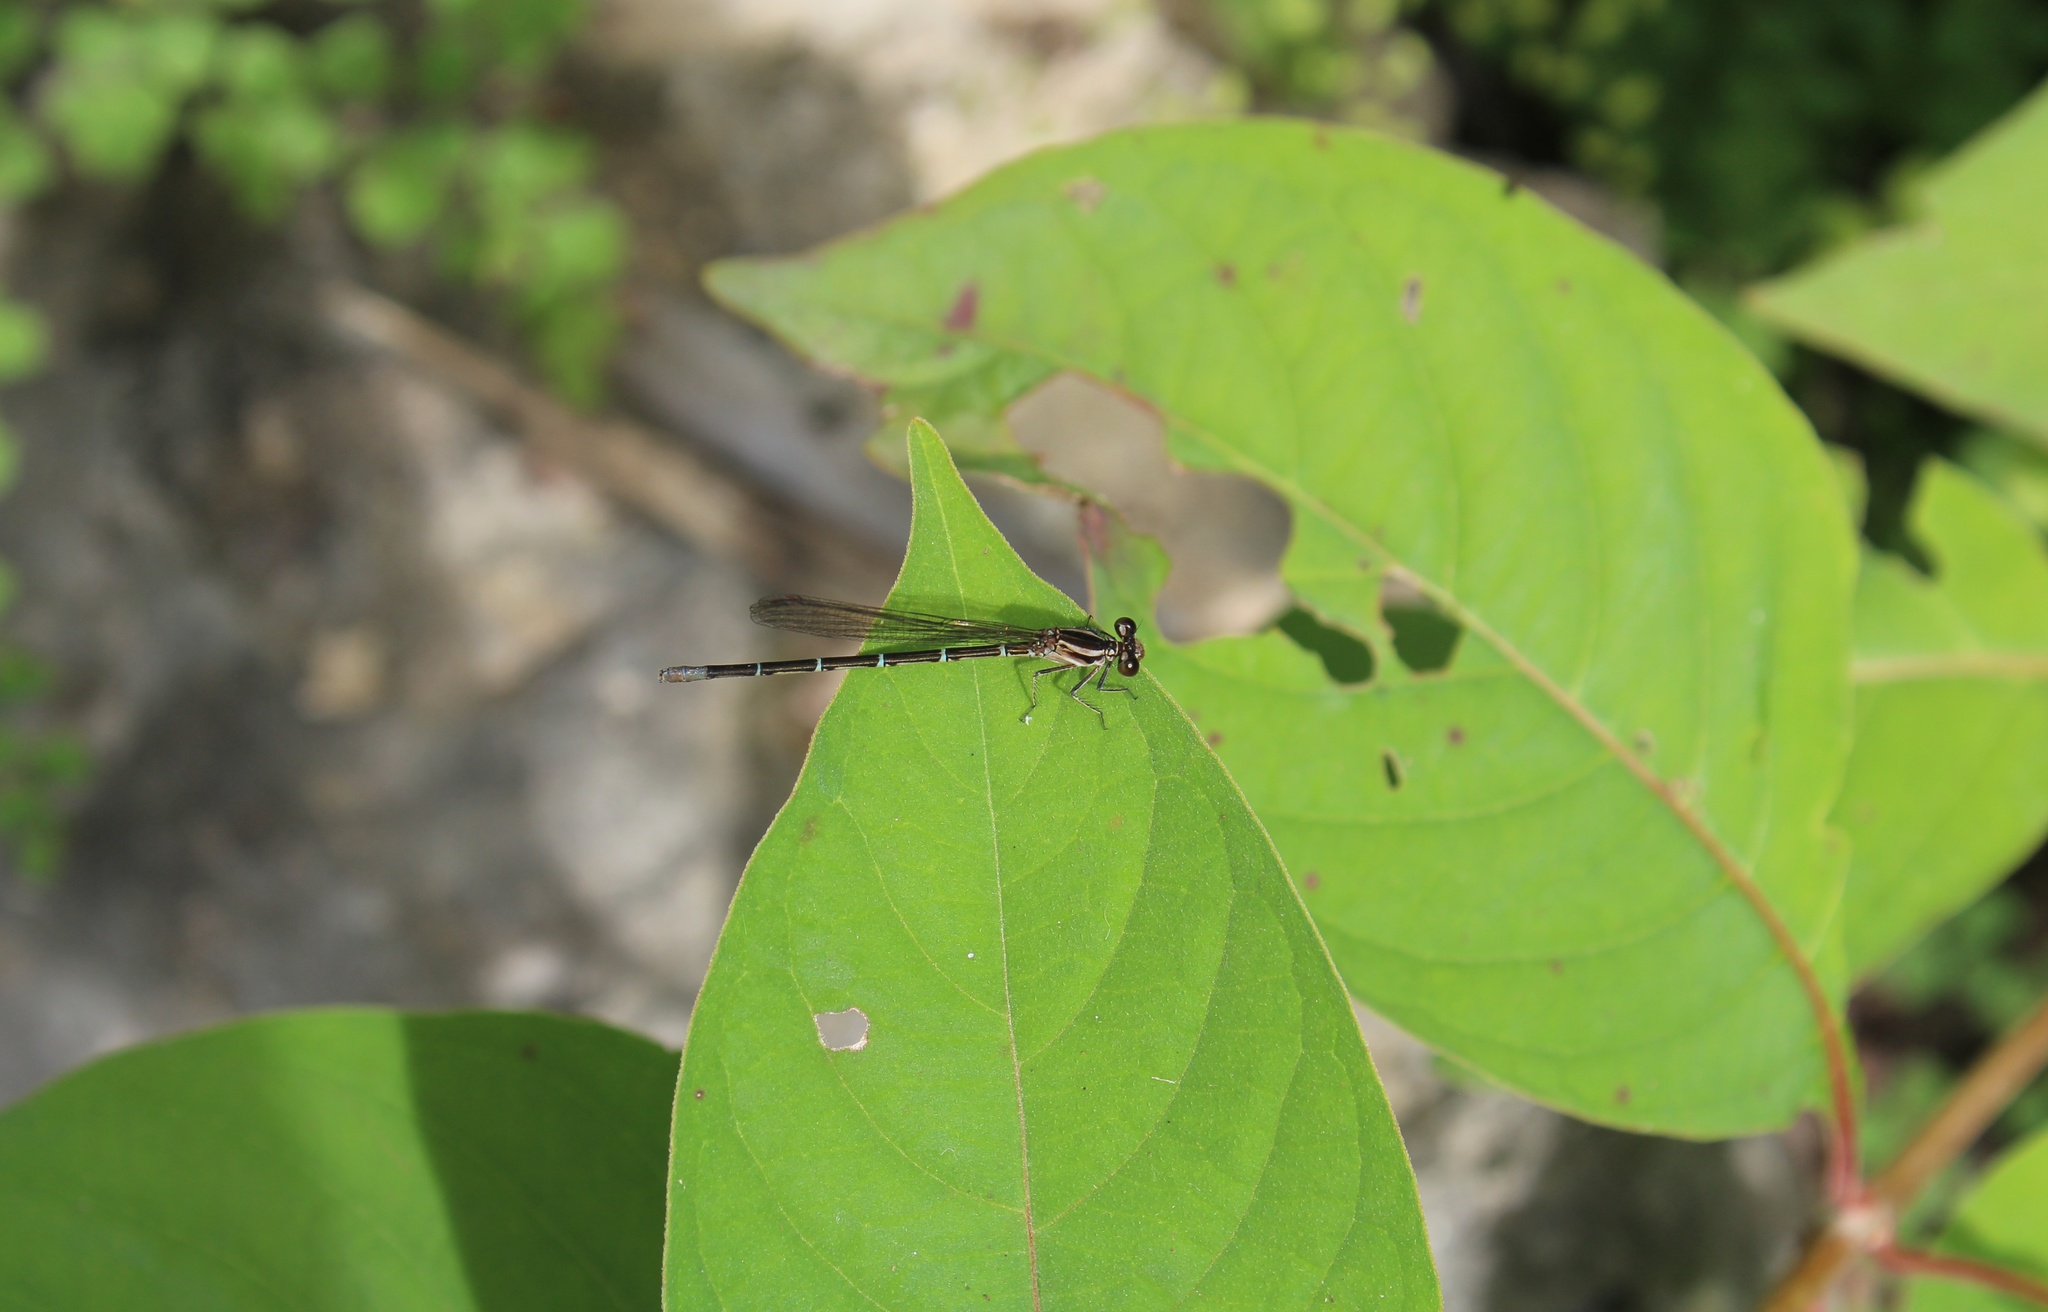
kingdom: Animalia
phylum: Arthropoda
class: Insecta
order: Odonata
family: Coenagrionidae
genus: Argia
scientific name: Argia pulla
